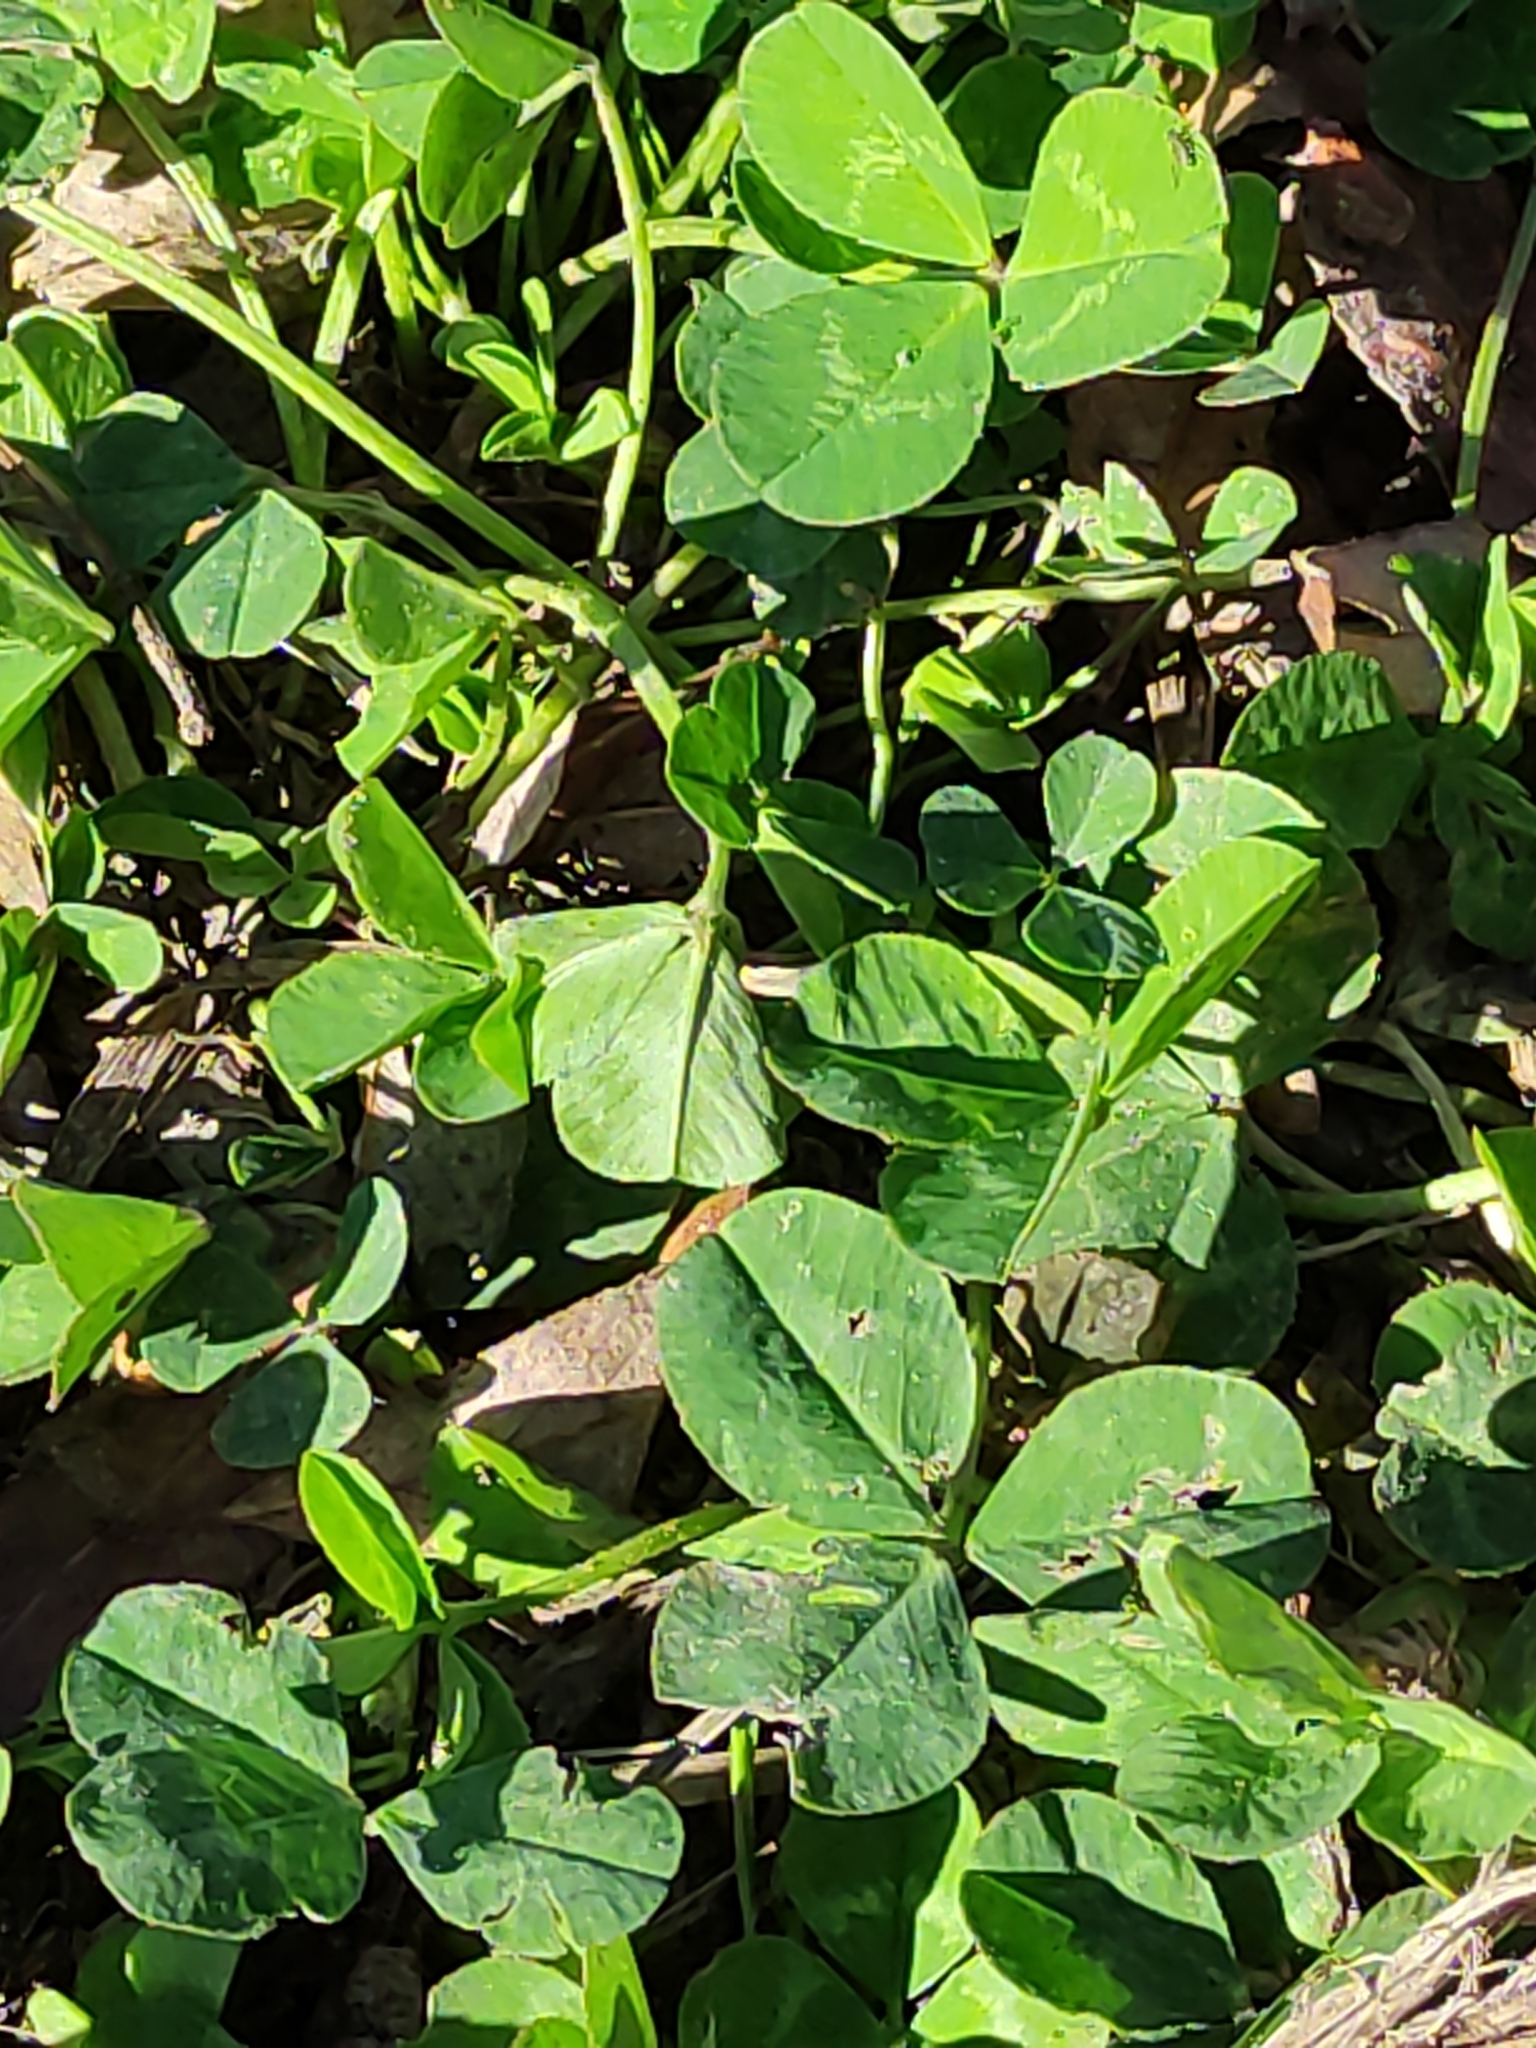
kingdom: Plantae
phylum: Tracheophyta
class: Magnoliopsida
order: Fabales
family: Fabaceae
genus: Trifolium
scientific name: Trifolium repens
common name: White clover
